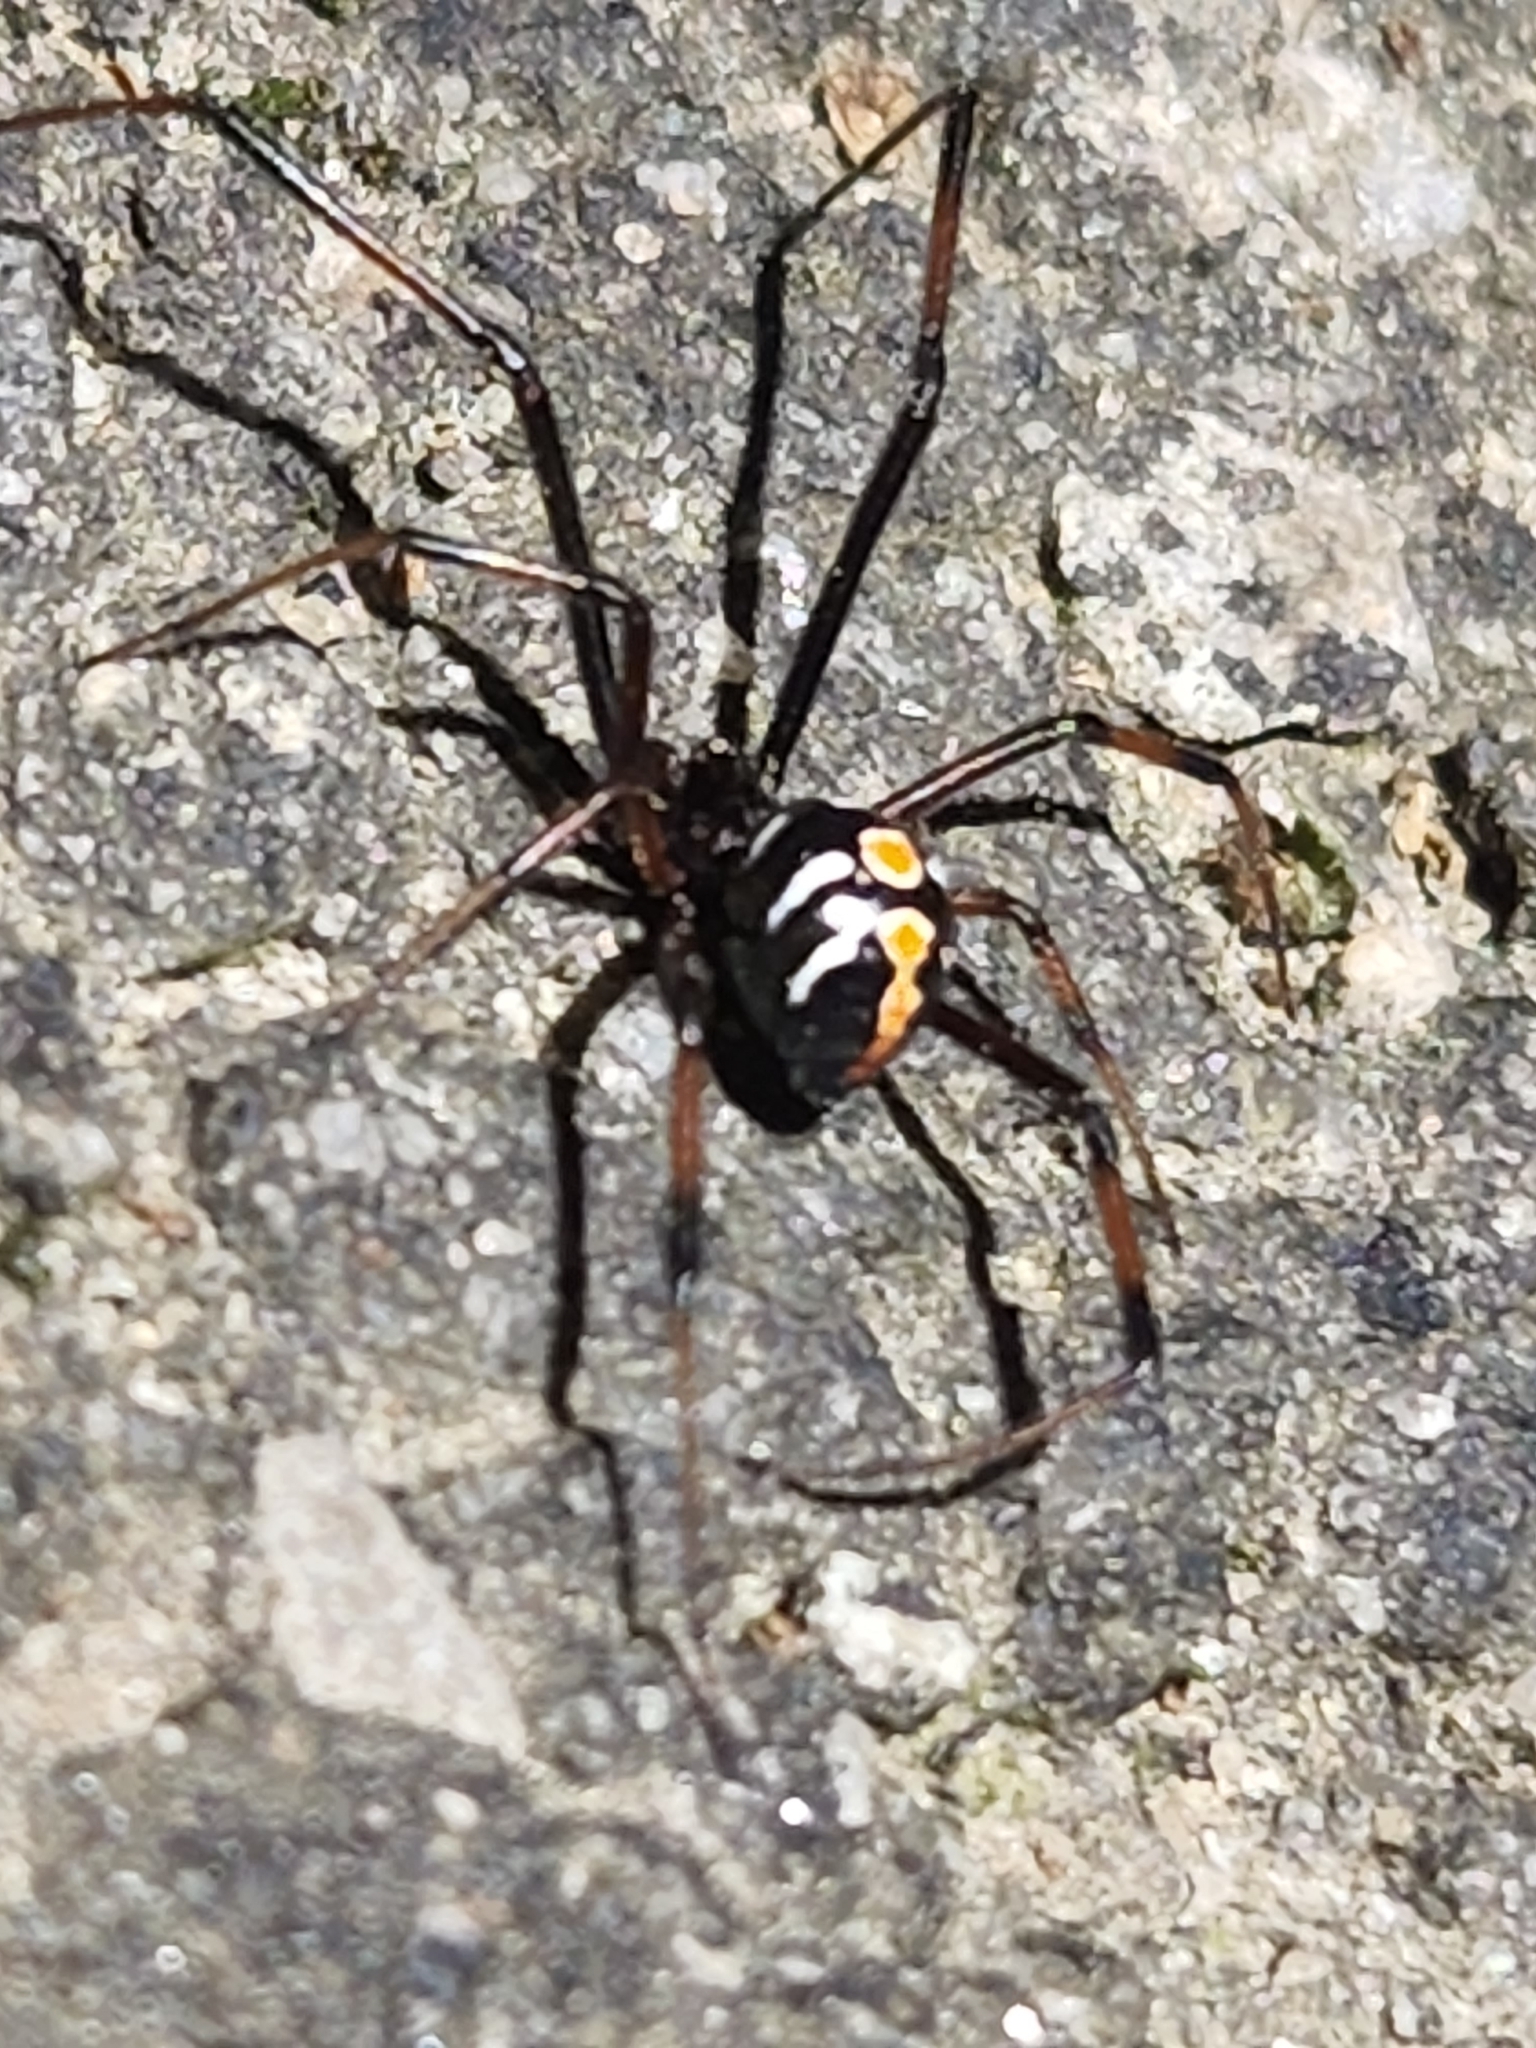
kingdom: Animalia
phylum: Arthropoda
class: Arachnida
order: Araneae
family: Theridiidae
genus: Latrodectus
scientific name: Latrodectus variolus
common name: Northern black widow
